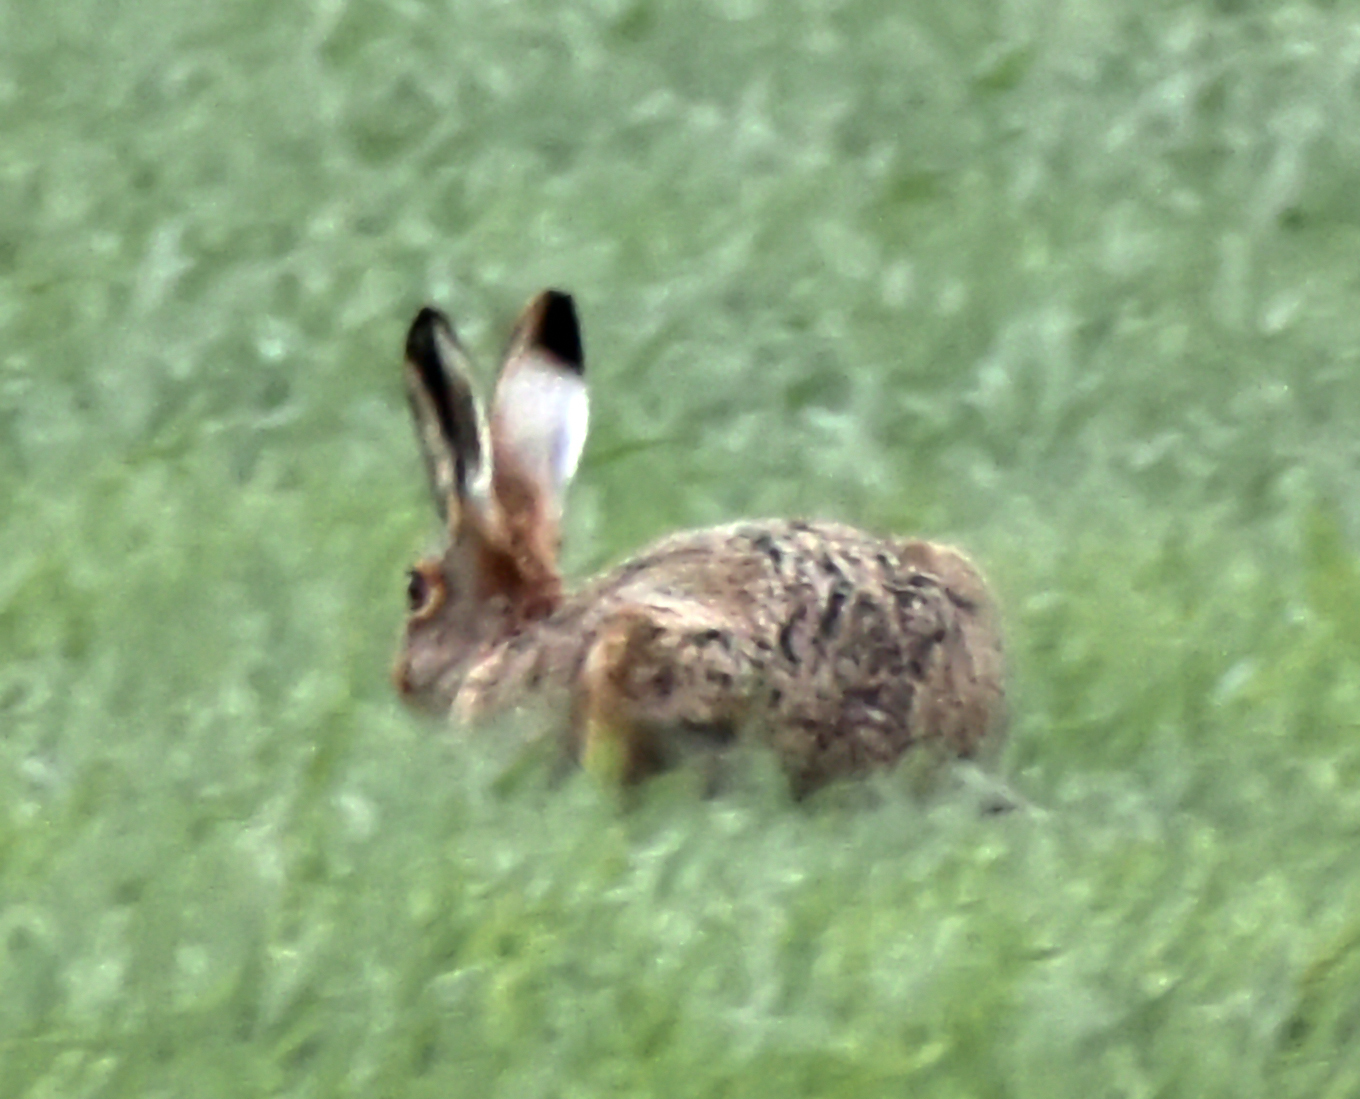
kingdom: Animalia
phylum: Chordata
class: Mammalia
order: Lagomorpha
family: Leporidae
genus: Lepus
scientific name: Lepus europaeus
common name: European hare
